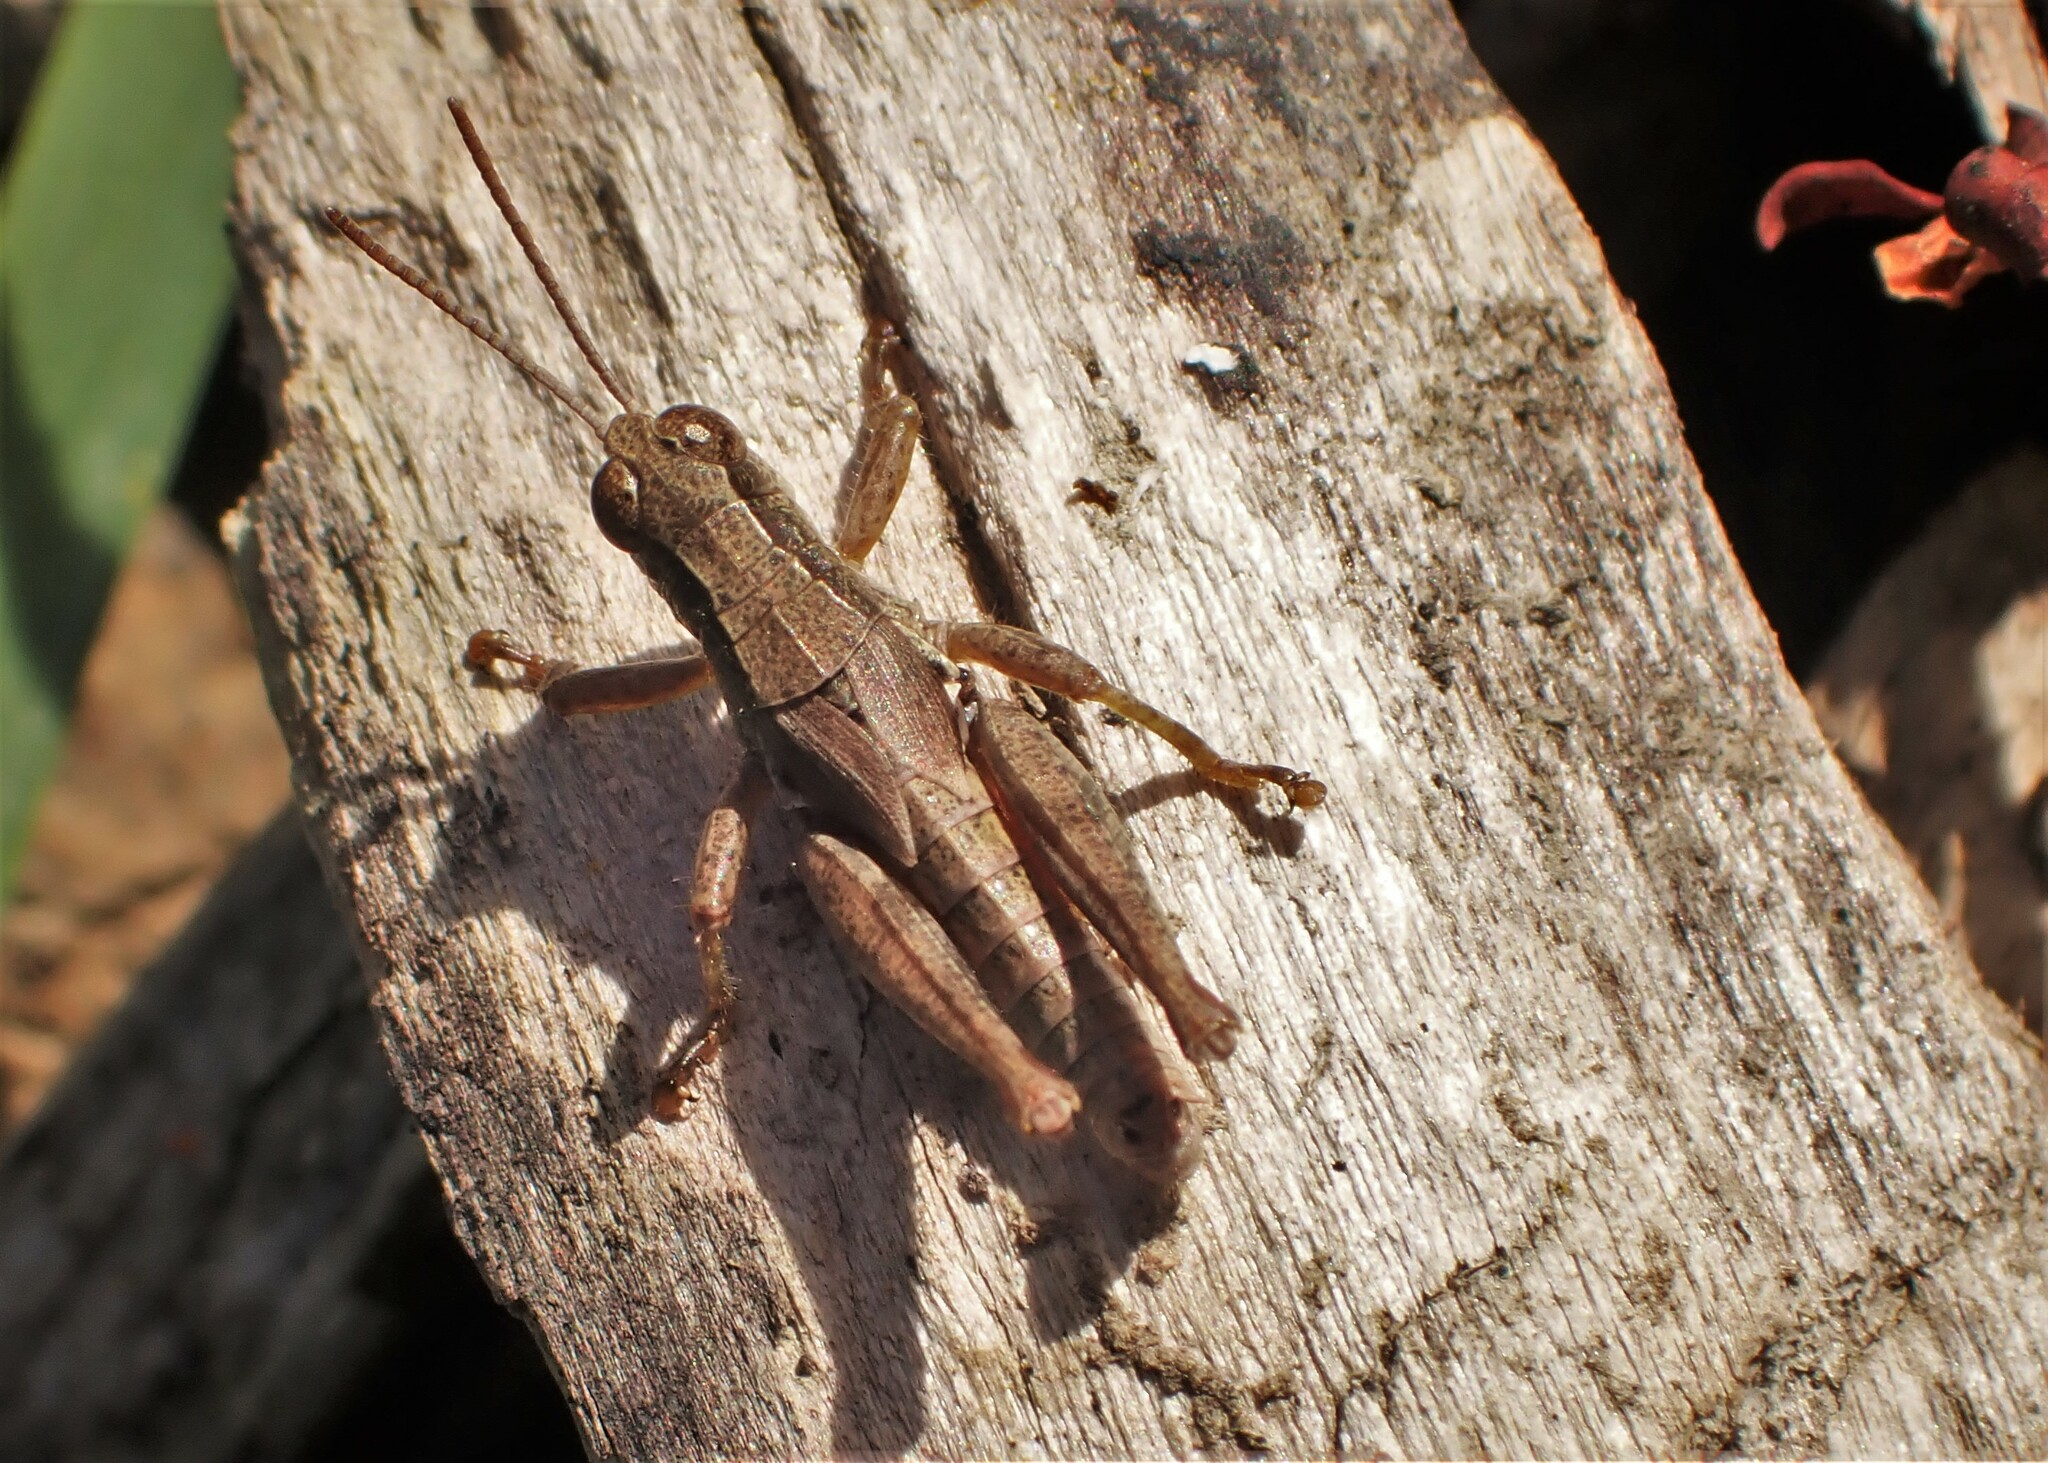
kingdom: Animalia
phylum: Arthropoda
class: Insecta
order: Orthoptera
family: Acrididae
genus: Phaulacridium
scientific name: Phaulacridium marginale
